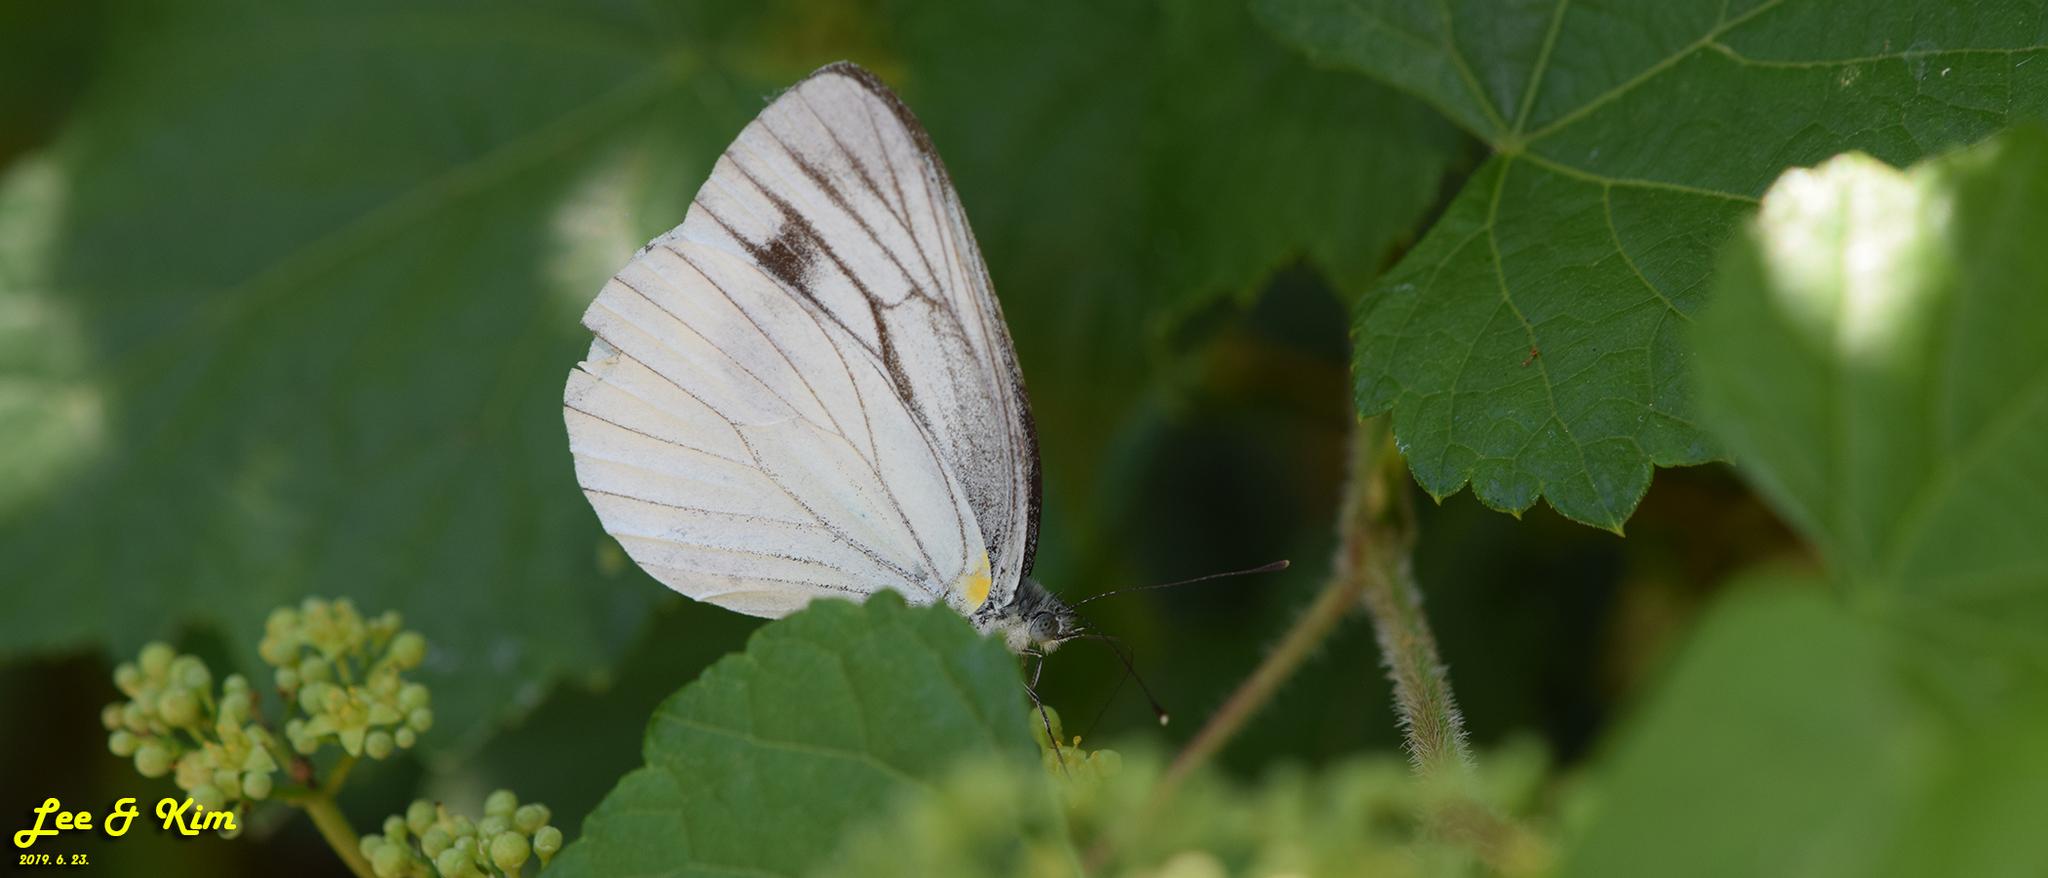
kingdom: Animalia
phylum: Arthropoda
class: Insecta
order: Lepidoptera
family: Pieridae
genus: Pieris
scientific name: Pieris melete
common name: Asian green-veined white
